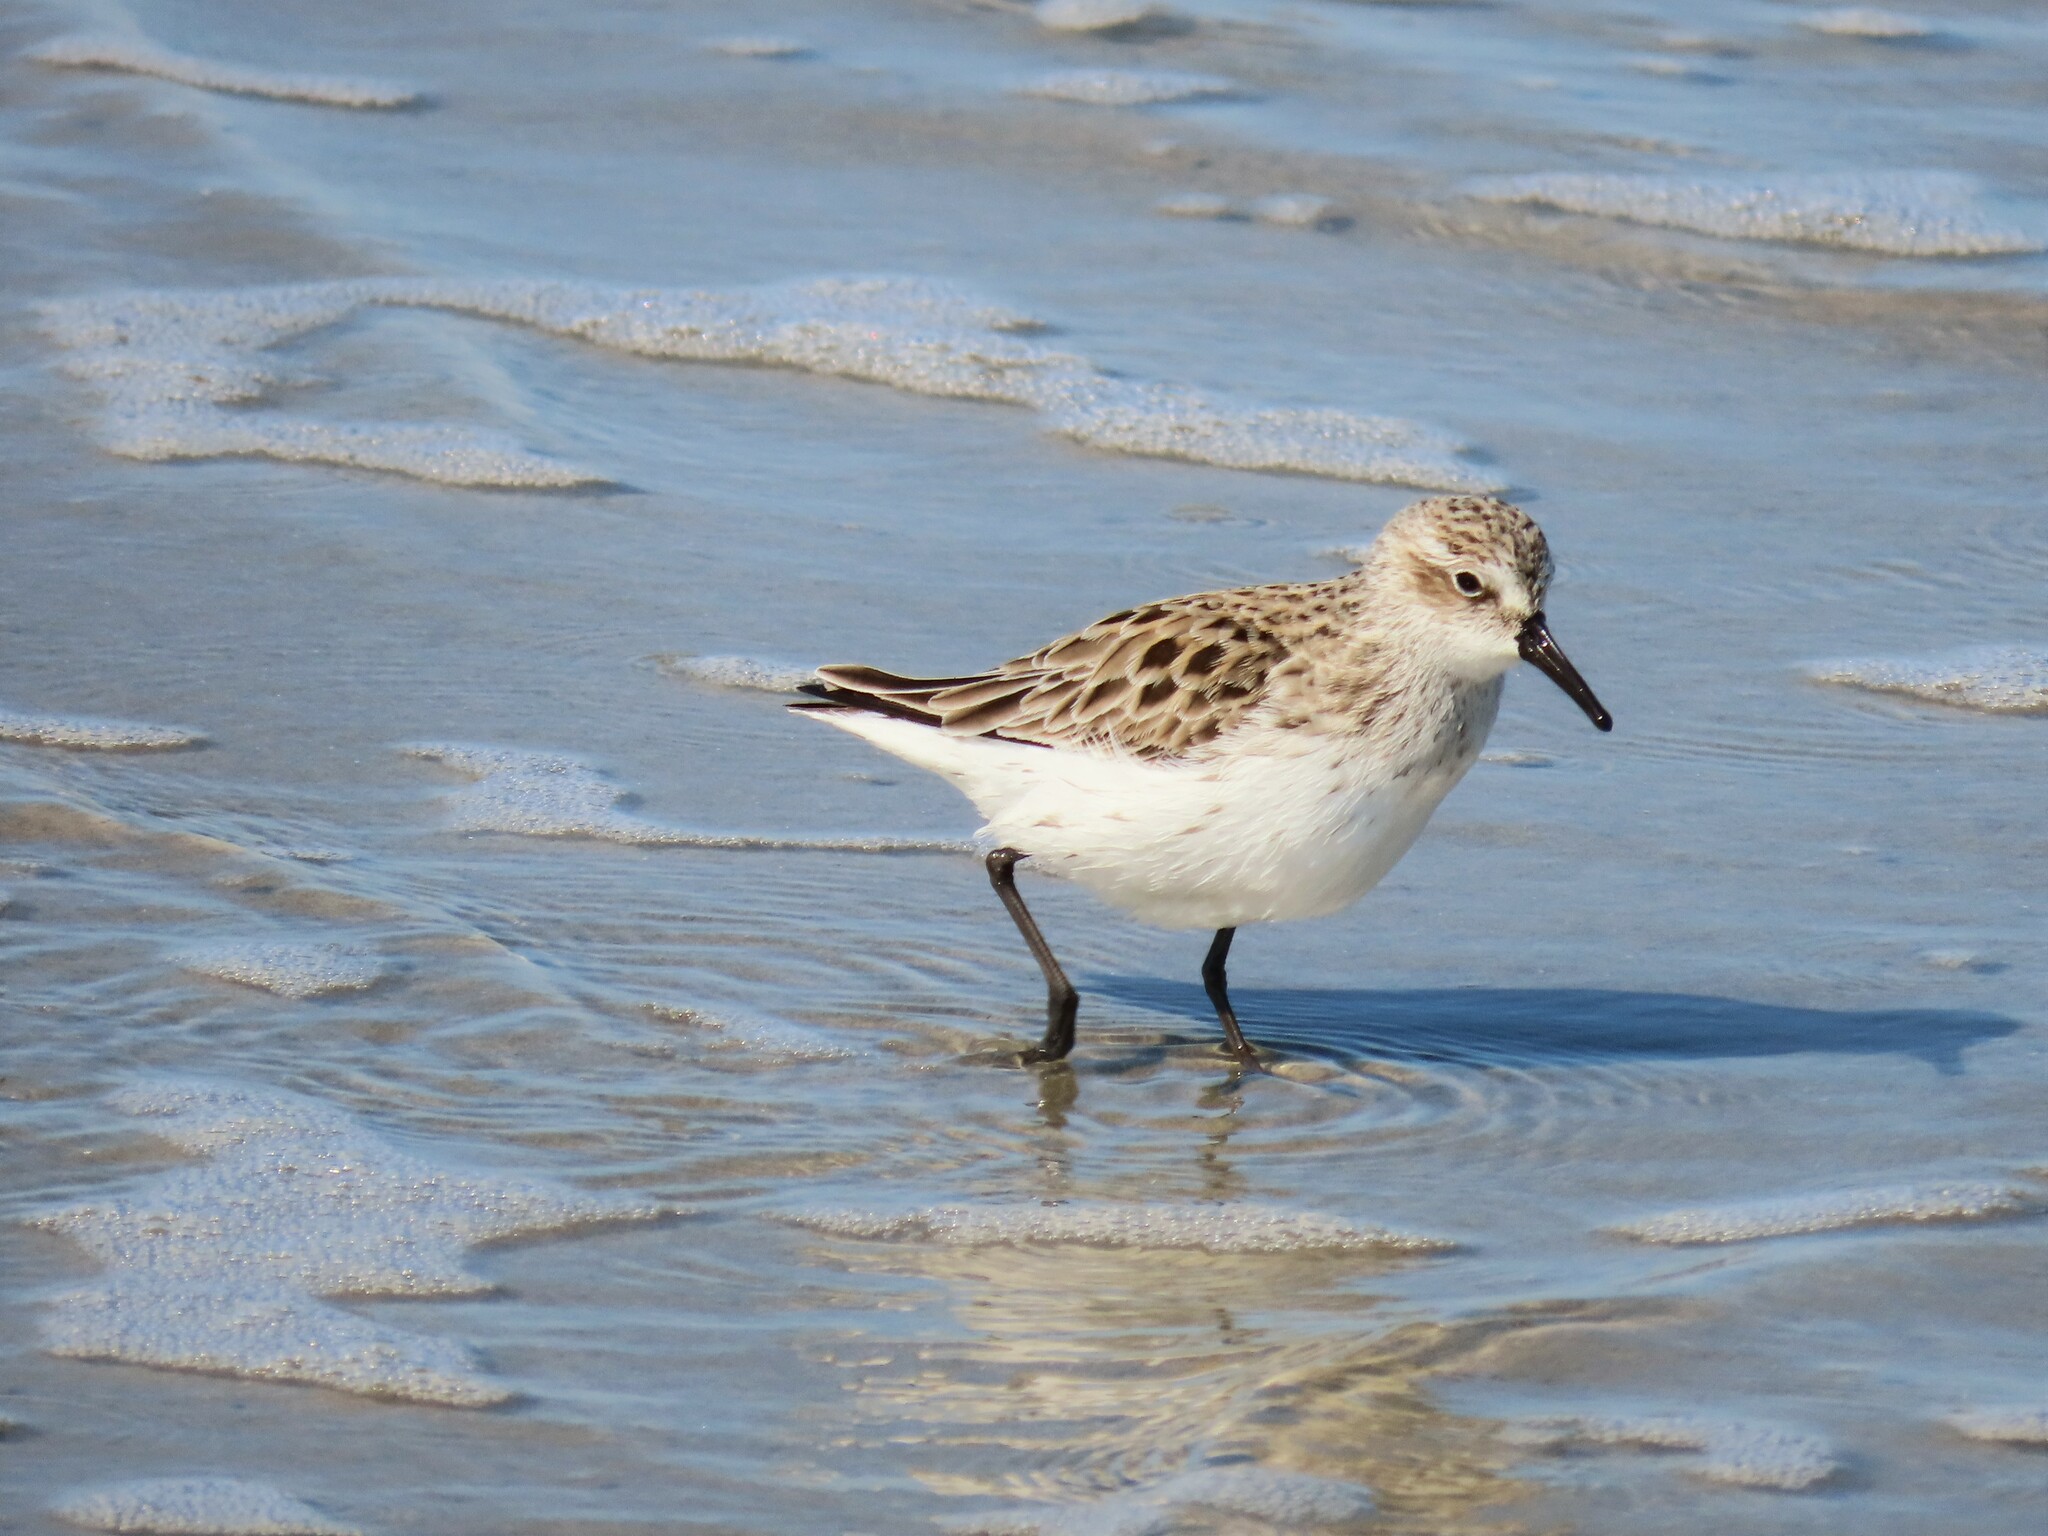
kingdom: Animalia
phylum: Chordata
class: Aves
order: Charadriiformes
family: Scolopacidae
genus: Calidris
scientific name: Calidris pusilla
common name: Semipalmated sandpiper
